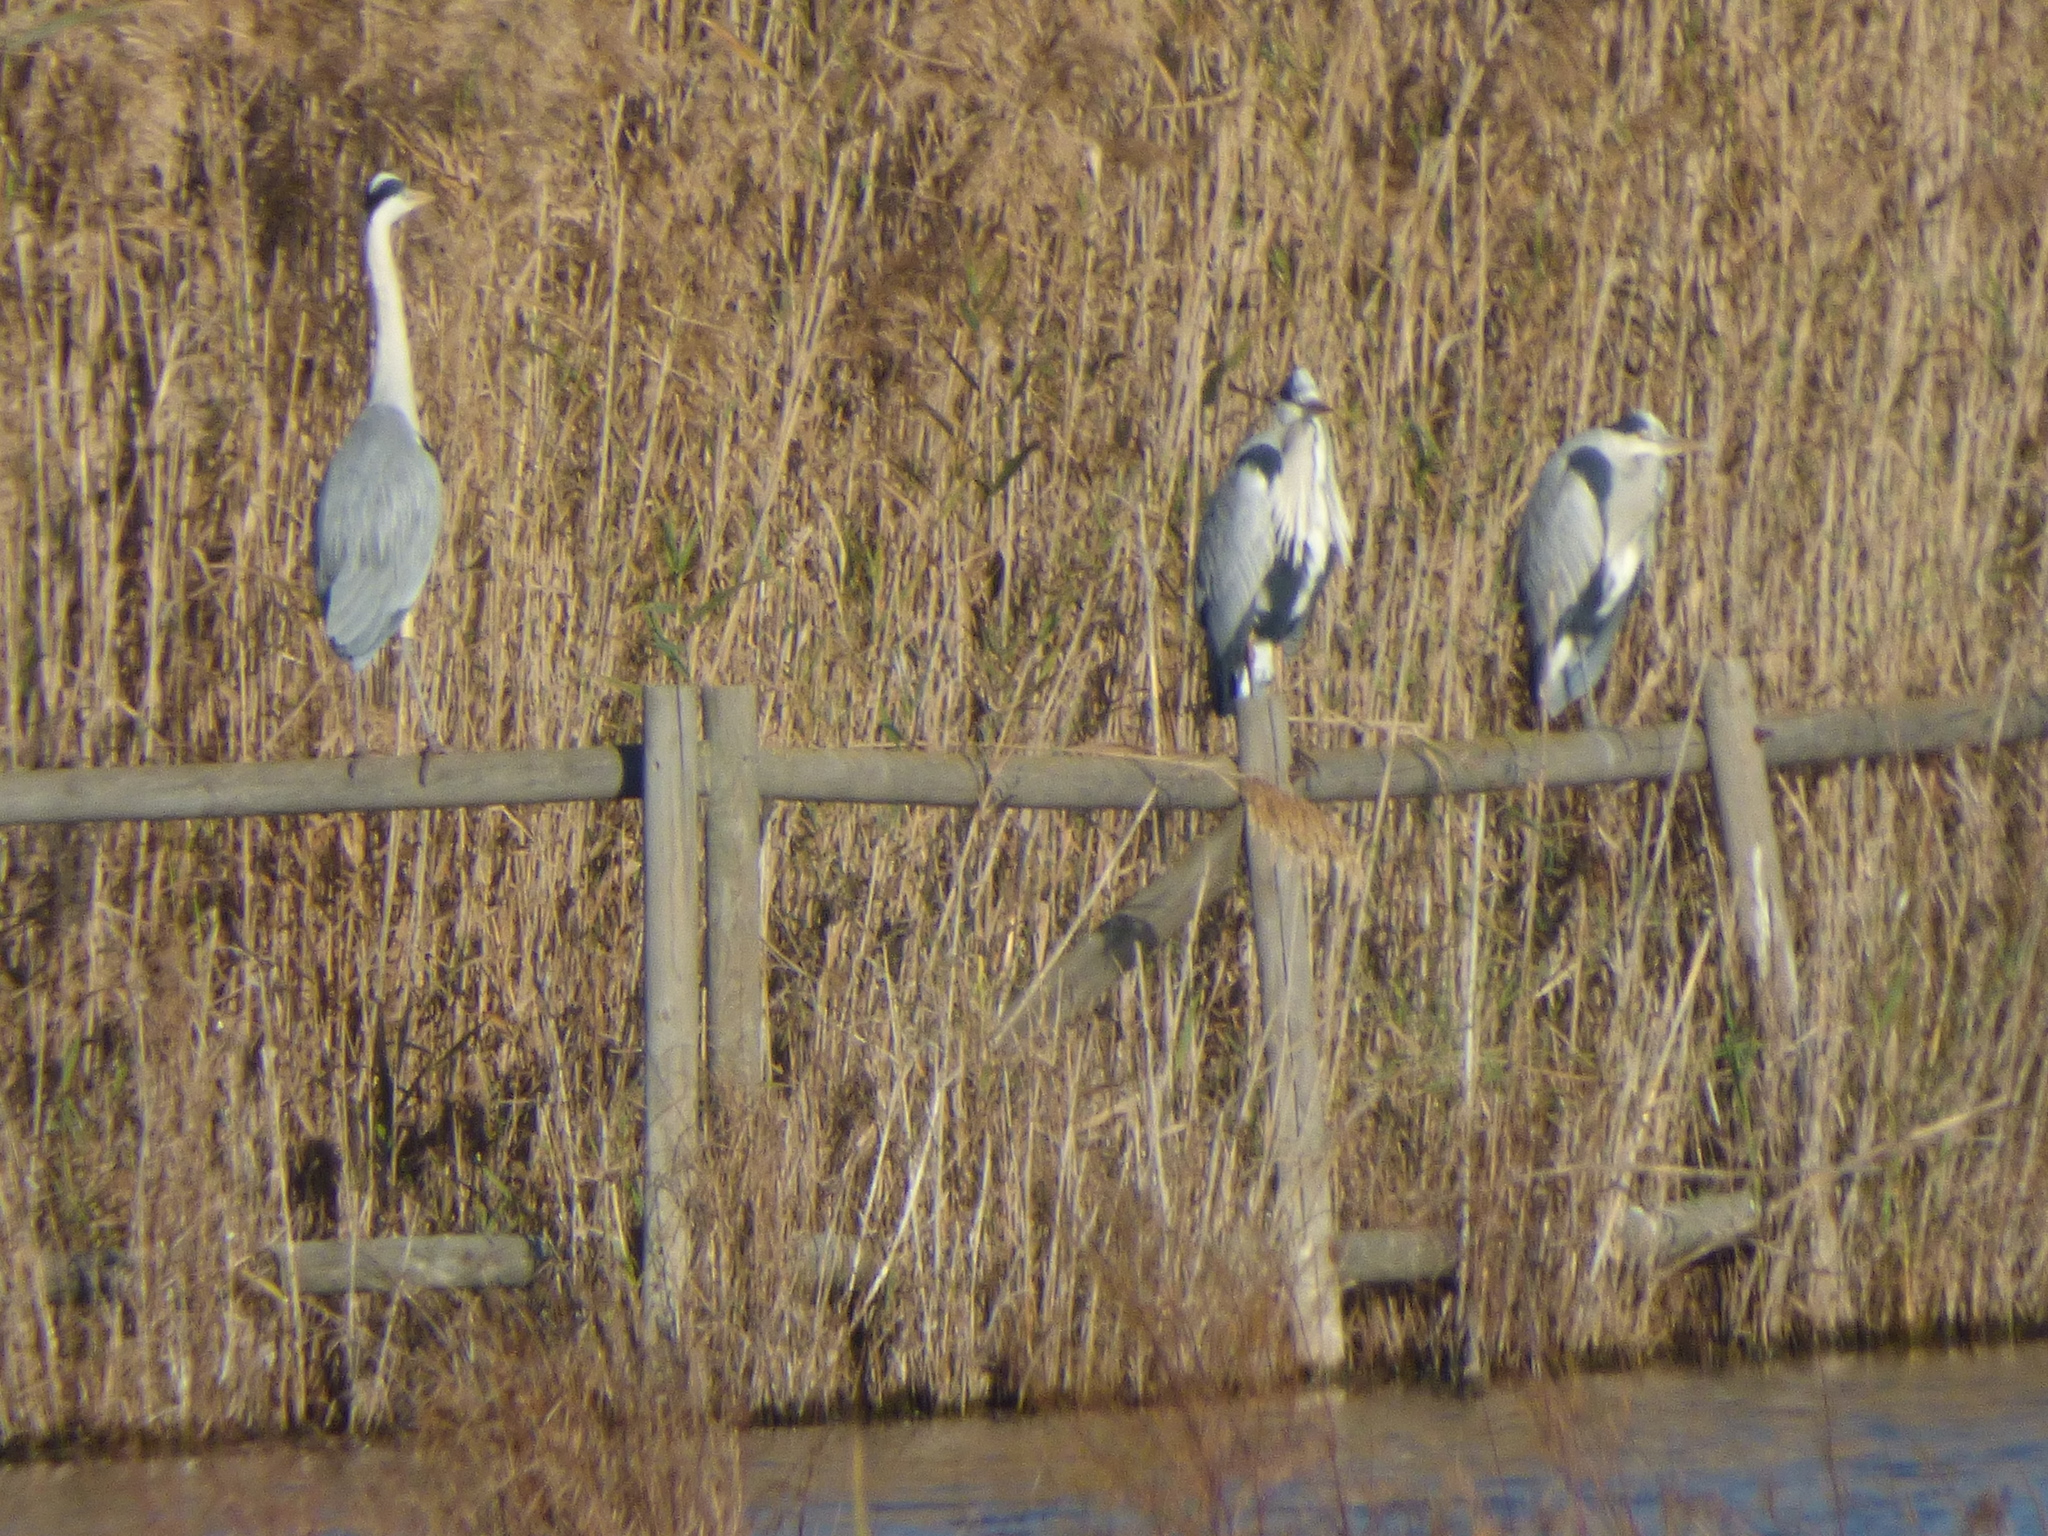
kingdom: Animalia
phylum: Chordata
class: Aves
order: Pelecaniformes
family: Ardeidae
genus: Ardea
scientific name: Ardea cinerea
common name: Grey heron
